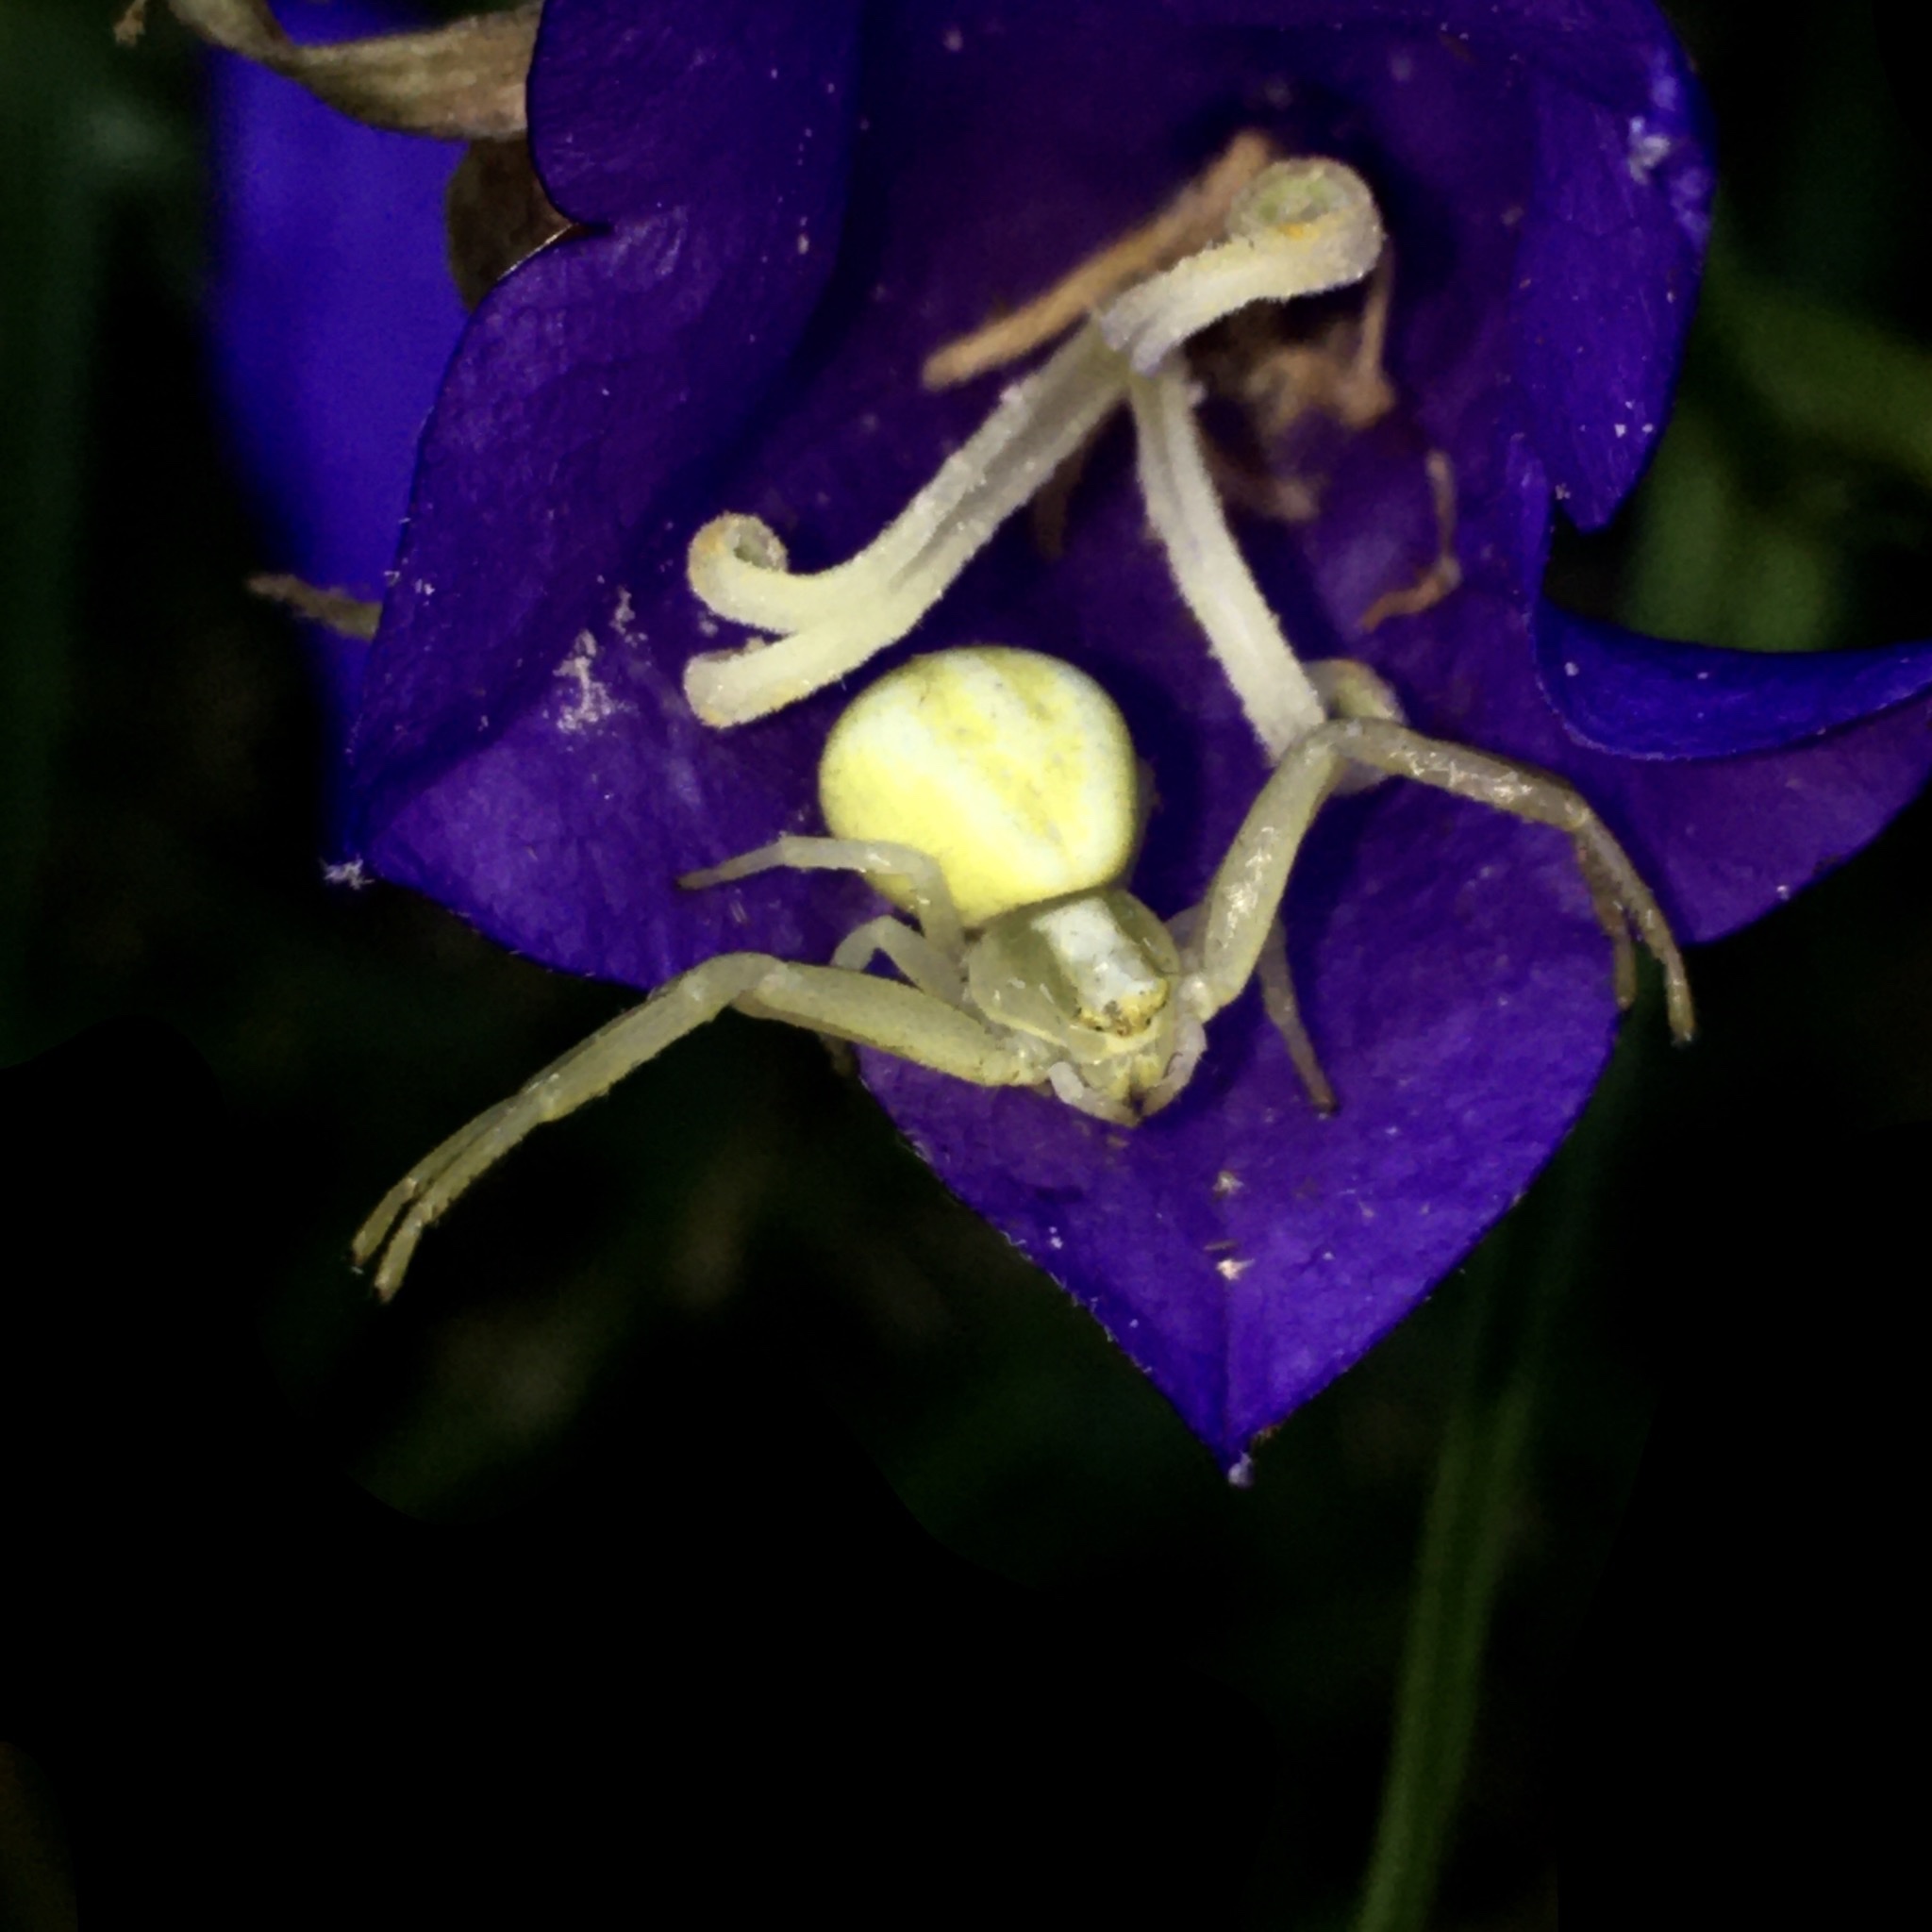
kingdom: Animalia
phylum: Arthropoda
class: Arachnida
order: Araneae
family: Thomisidae
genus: Misumena
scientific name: Misumena vatia
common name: Goldenrod crab spider
